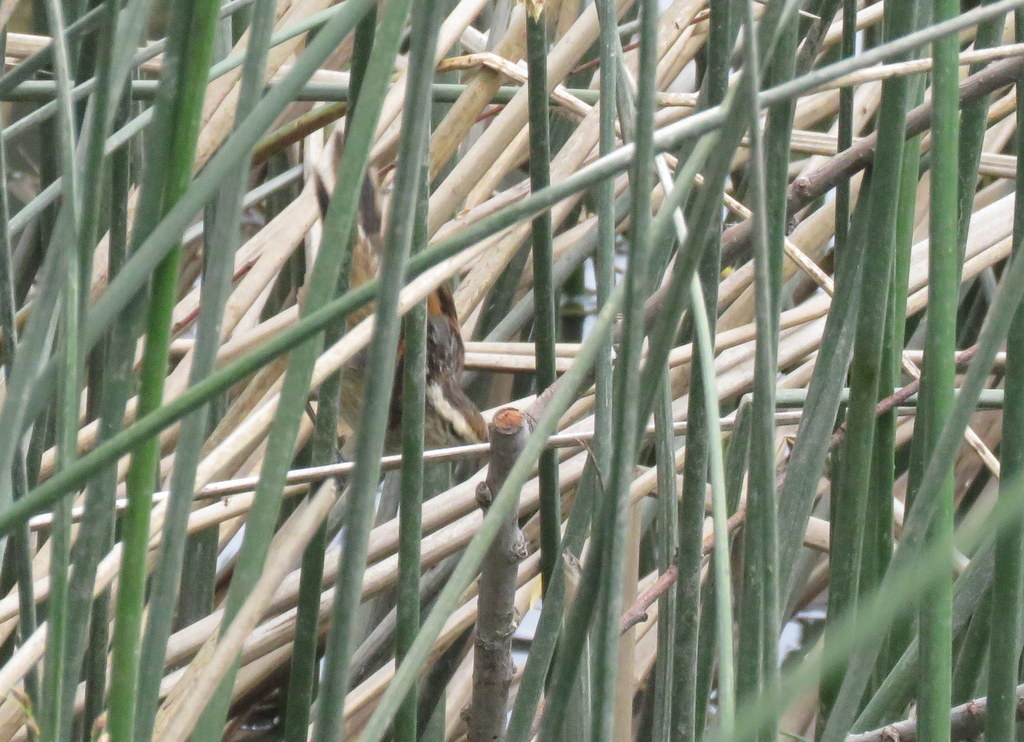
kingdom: Animalia
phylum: Chordata
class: Aves
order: Passeriformes
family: Furnariidae
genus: Phleocryptes
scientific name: Phleocryptes melanops
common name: Wren-like rushbird
